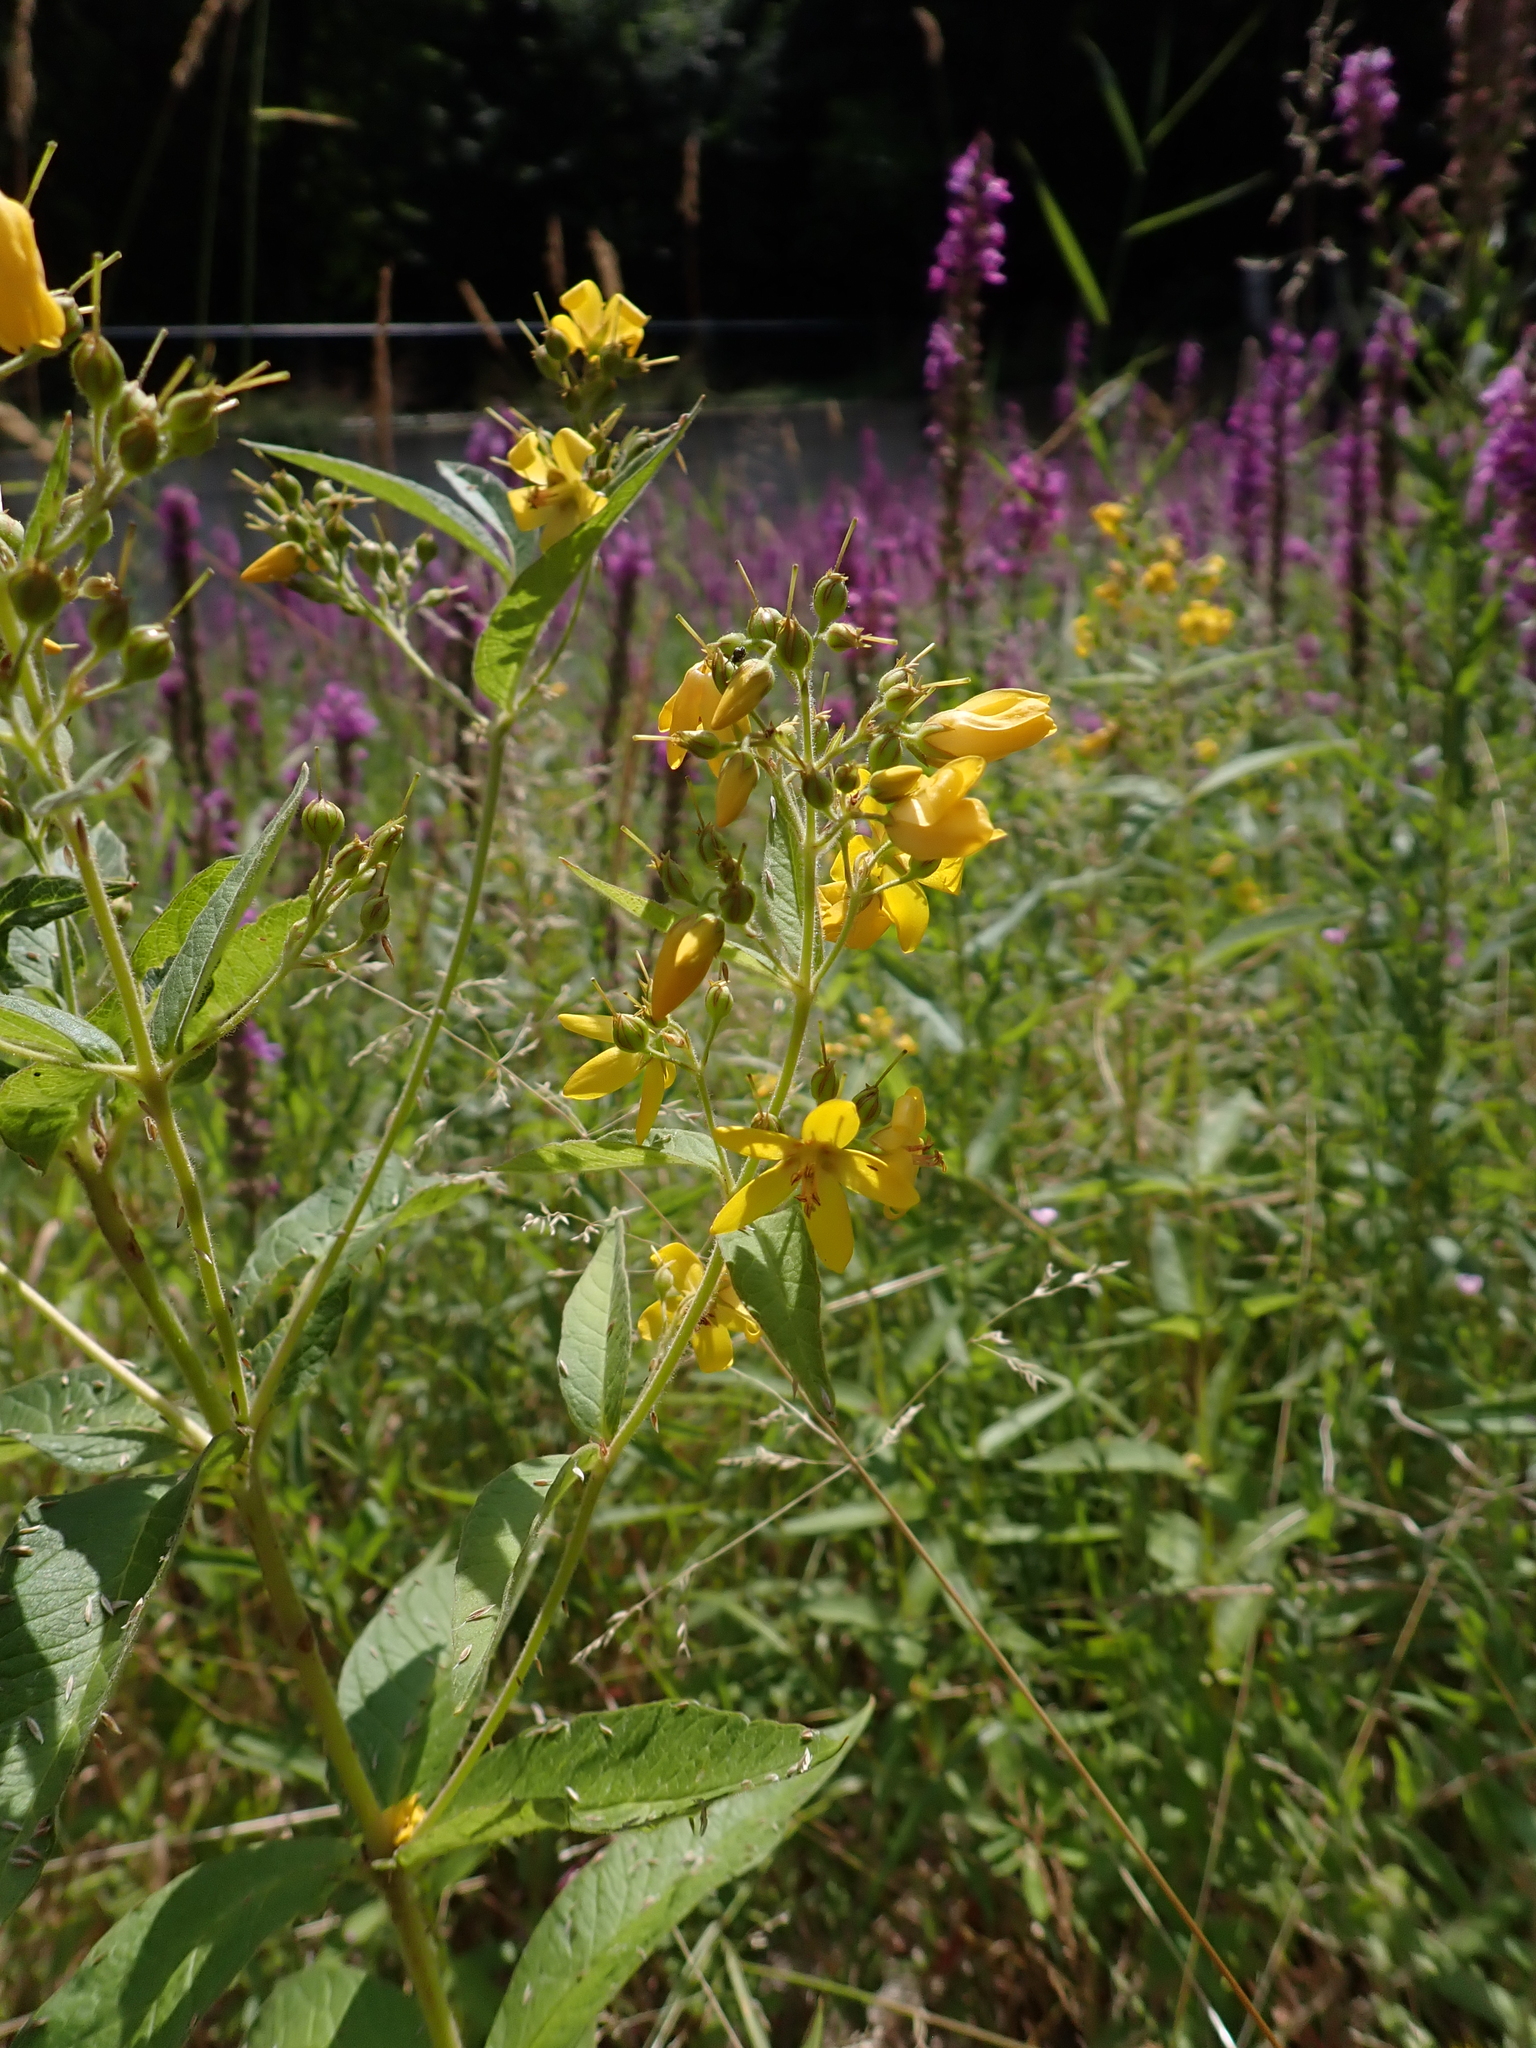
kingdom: Plantae
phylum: Tracheophyta
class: Magnoliopsida
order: Ericales
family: Primulaceae
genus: Lysimachia
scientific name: Lysimachia vulgaris
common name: Yellow loosestrife
